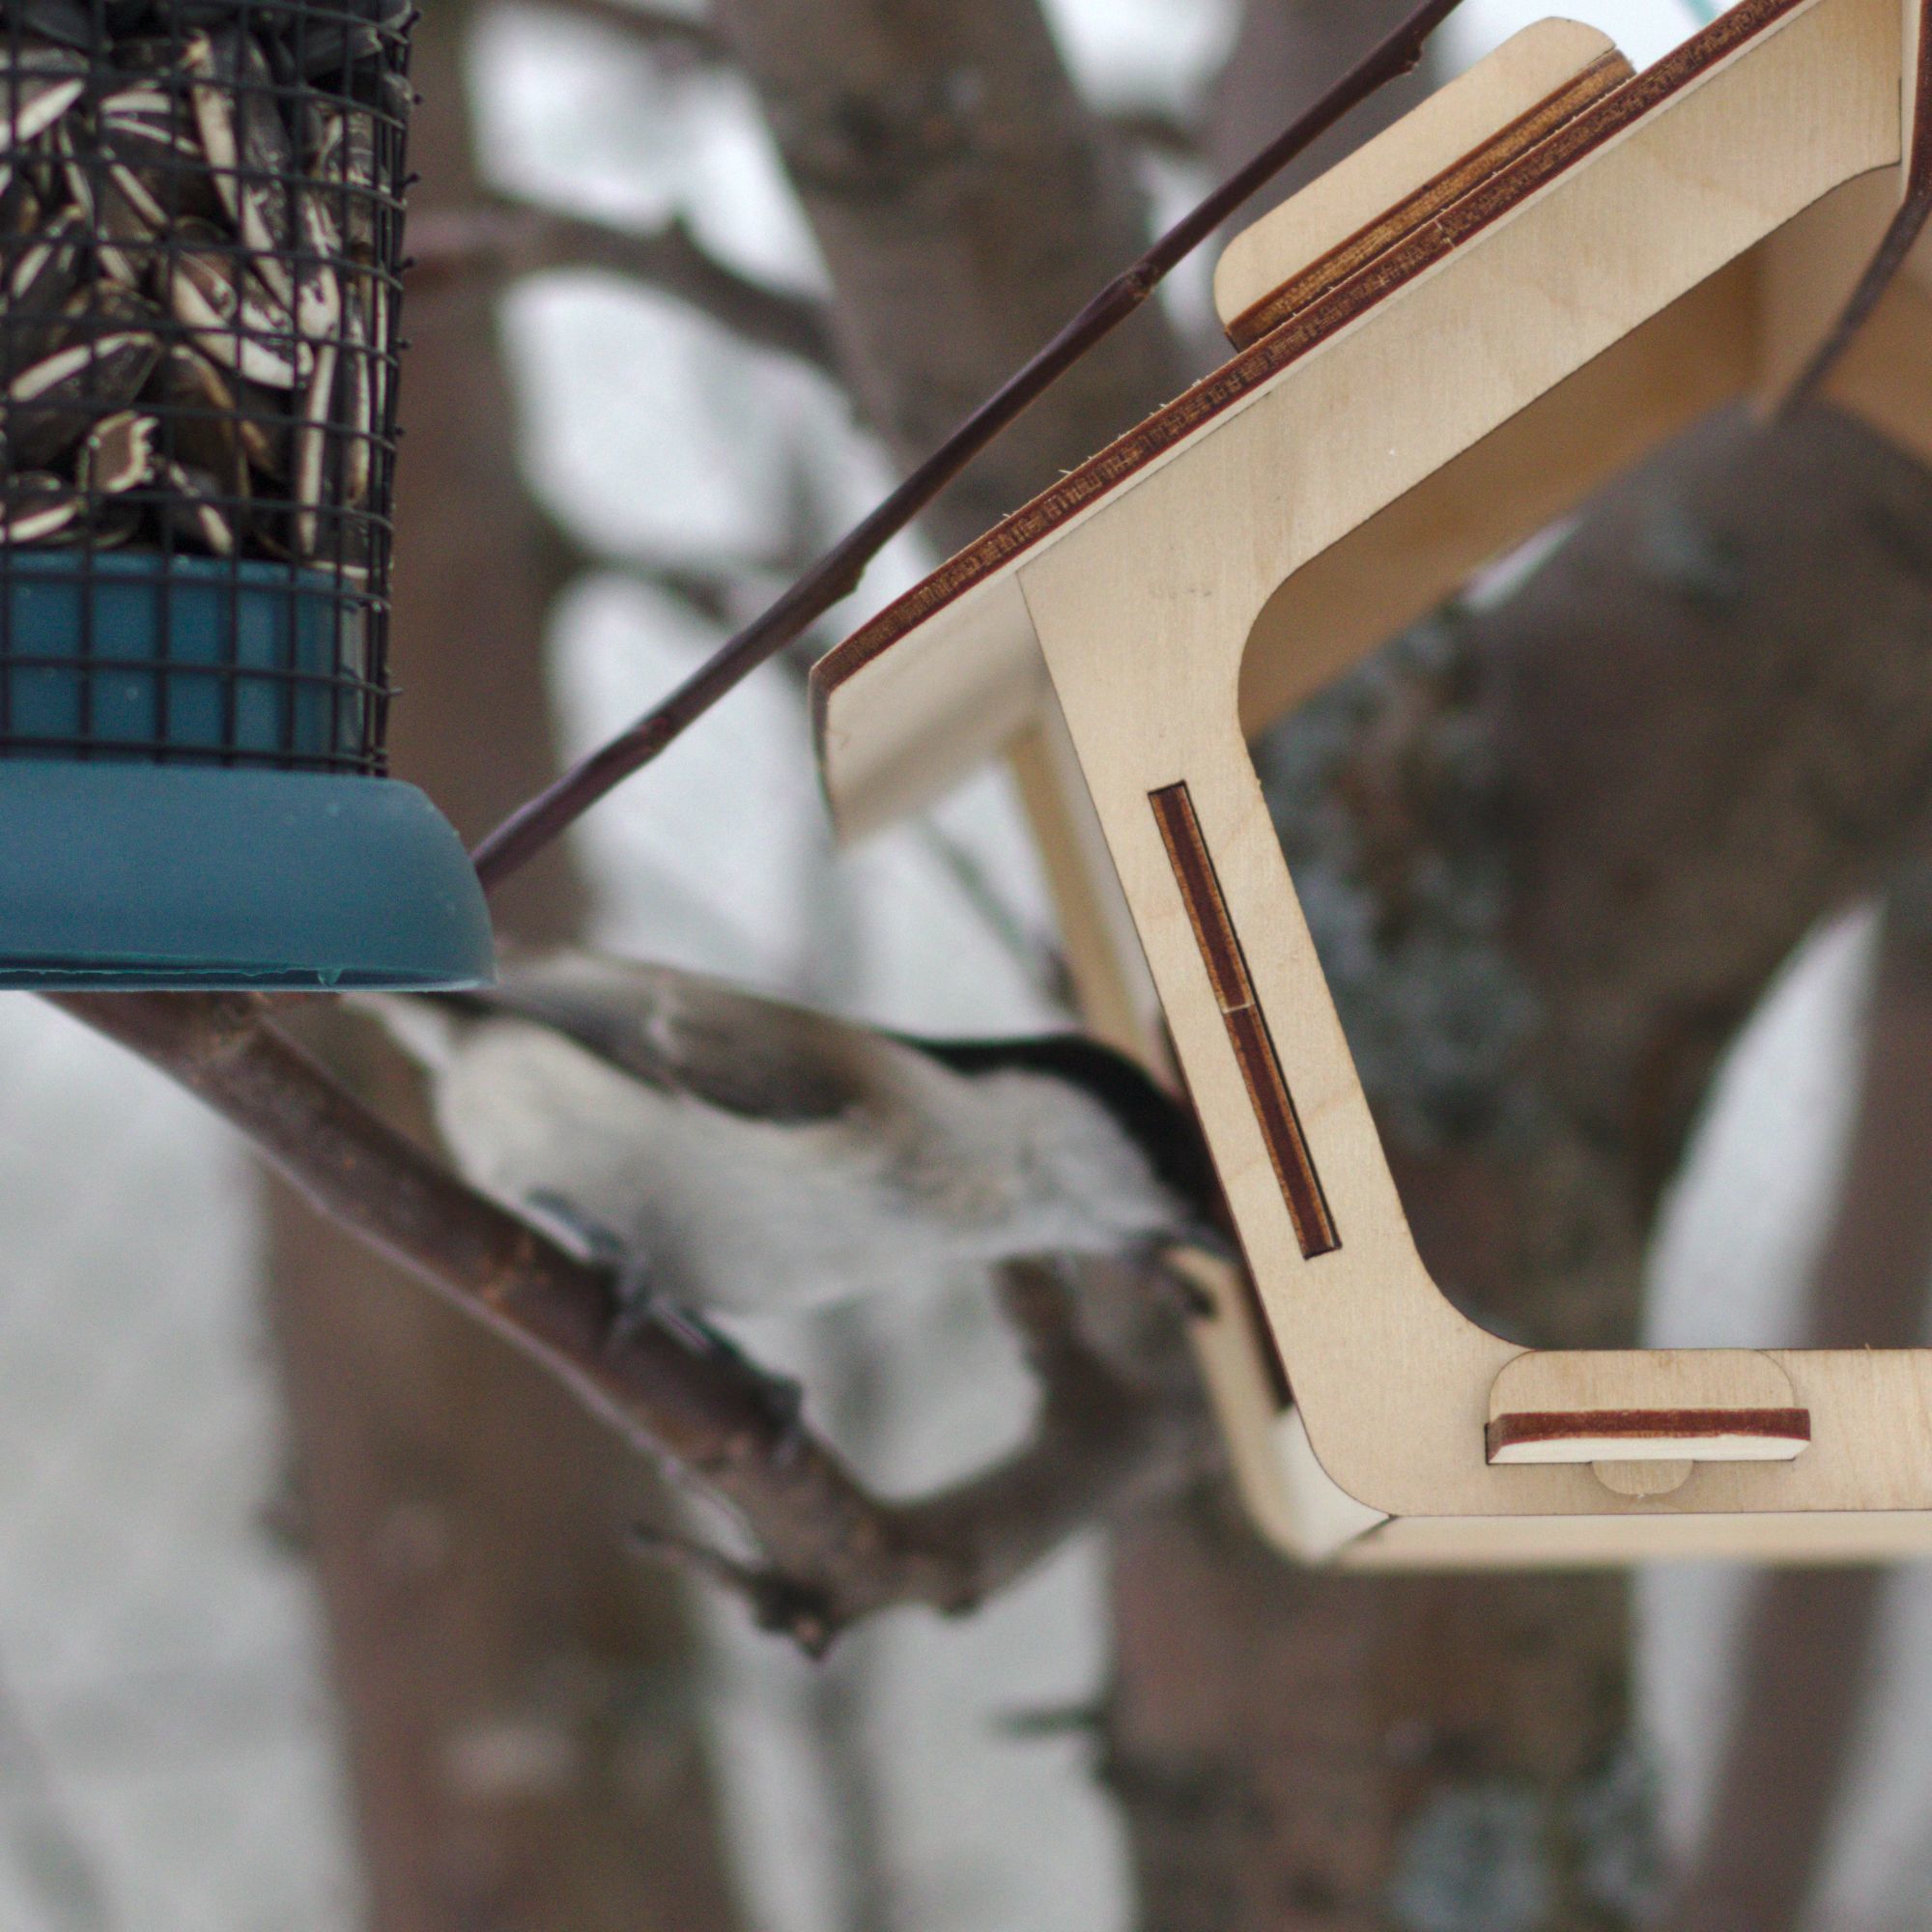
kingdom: Animalia
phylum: Chordata
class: Aves
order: Passeriformes
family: Paridae
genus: Poecile
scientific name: Poecile palustris
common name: Marsh tit
